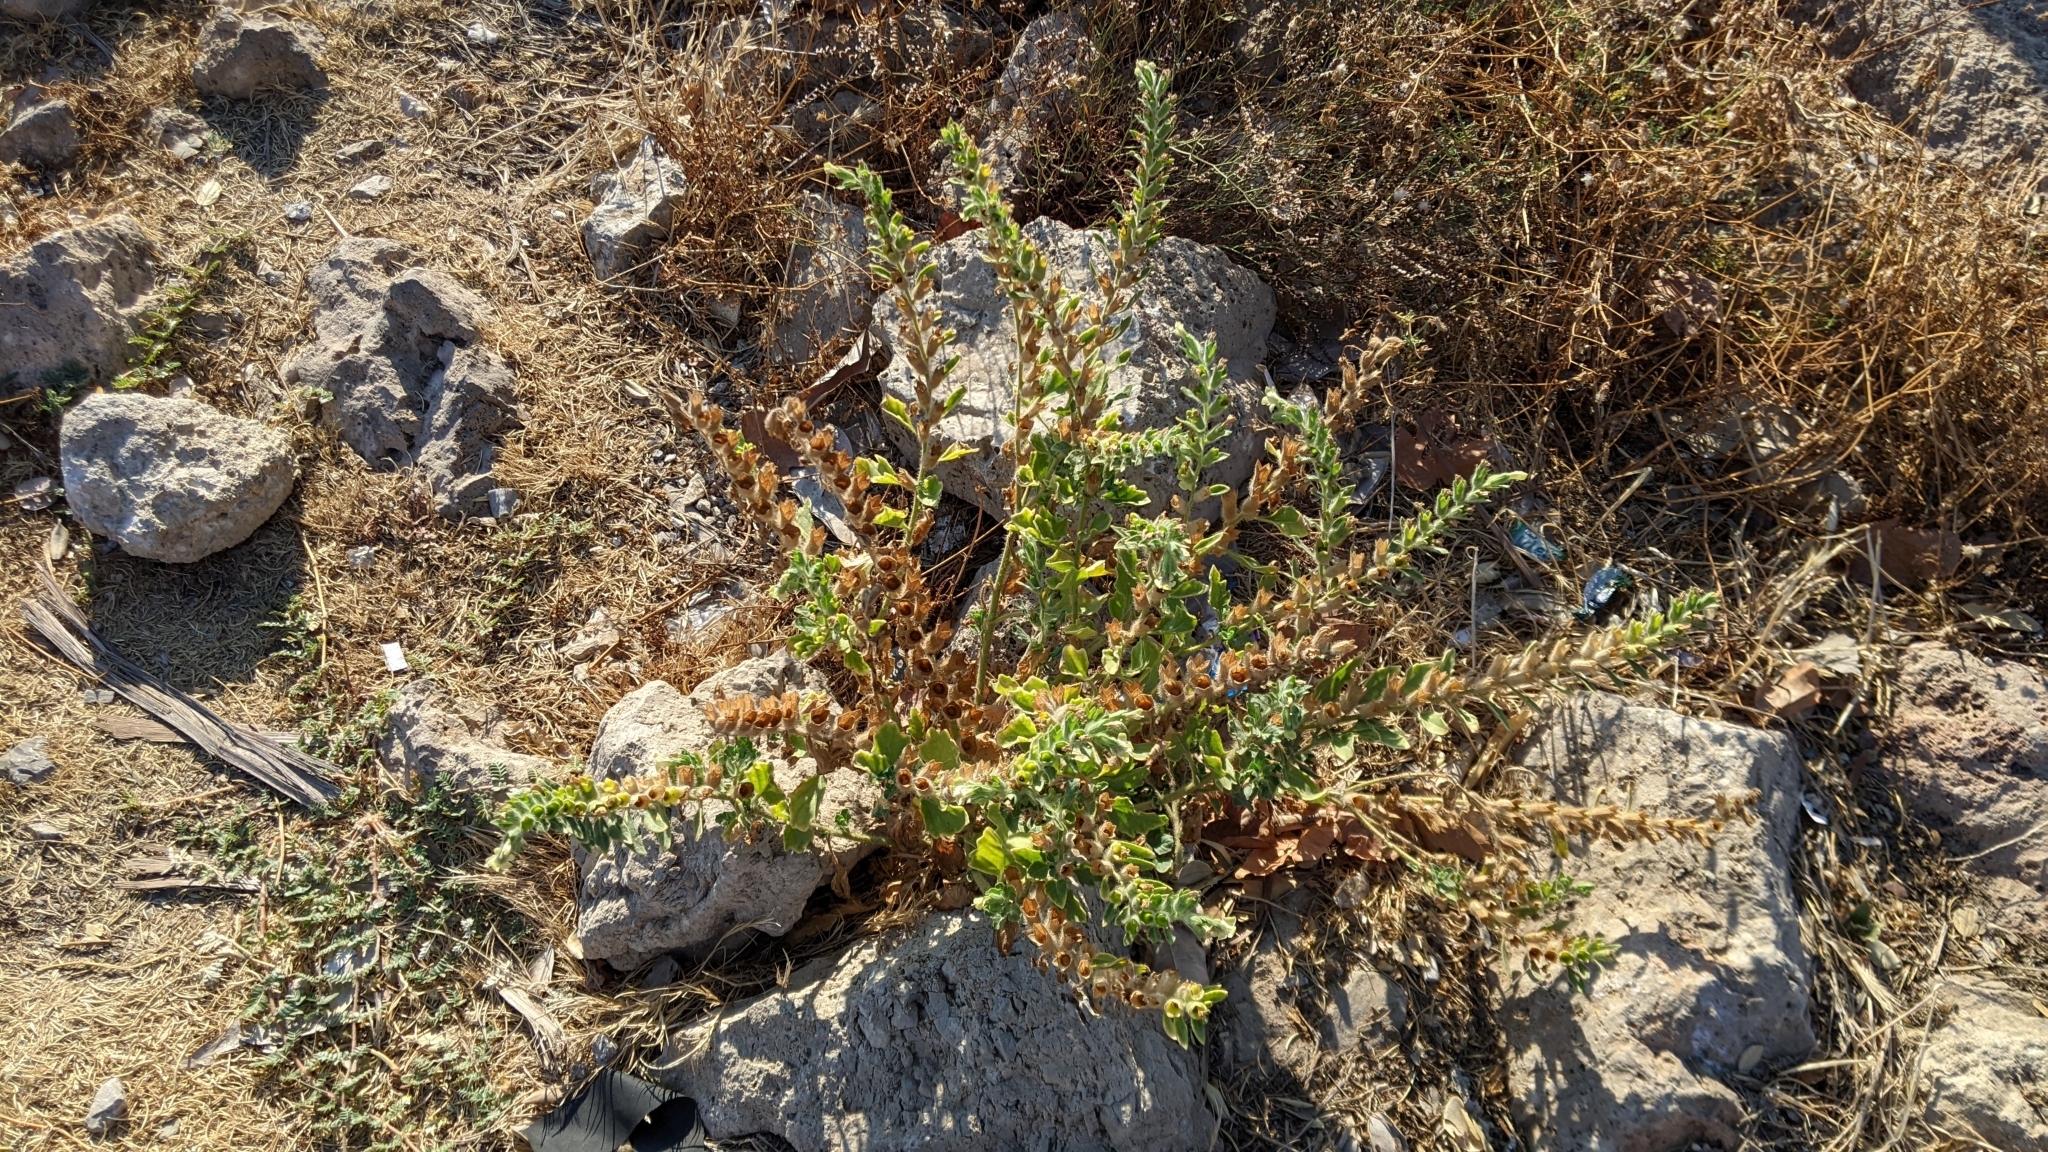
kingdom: Plantae
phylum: Tracheophyta
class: Magnoliopsida
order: Solanales
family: Solanaceae
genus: Hyoscyamus
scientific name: Hyoscyamus albus
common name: White henbane
